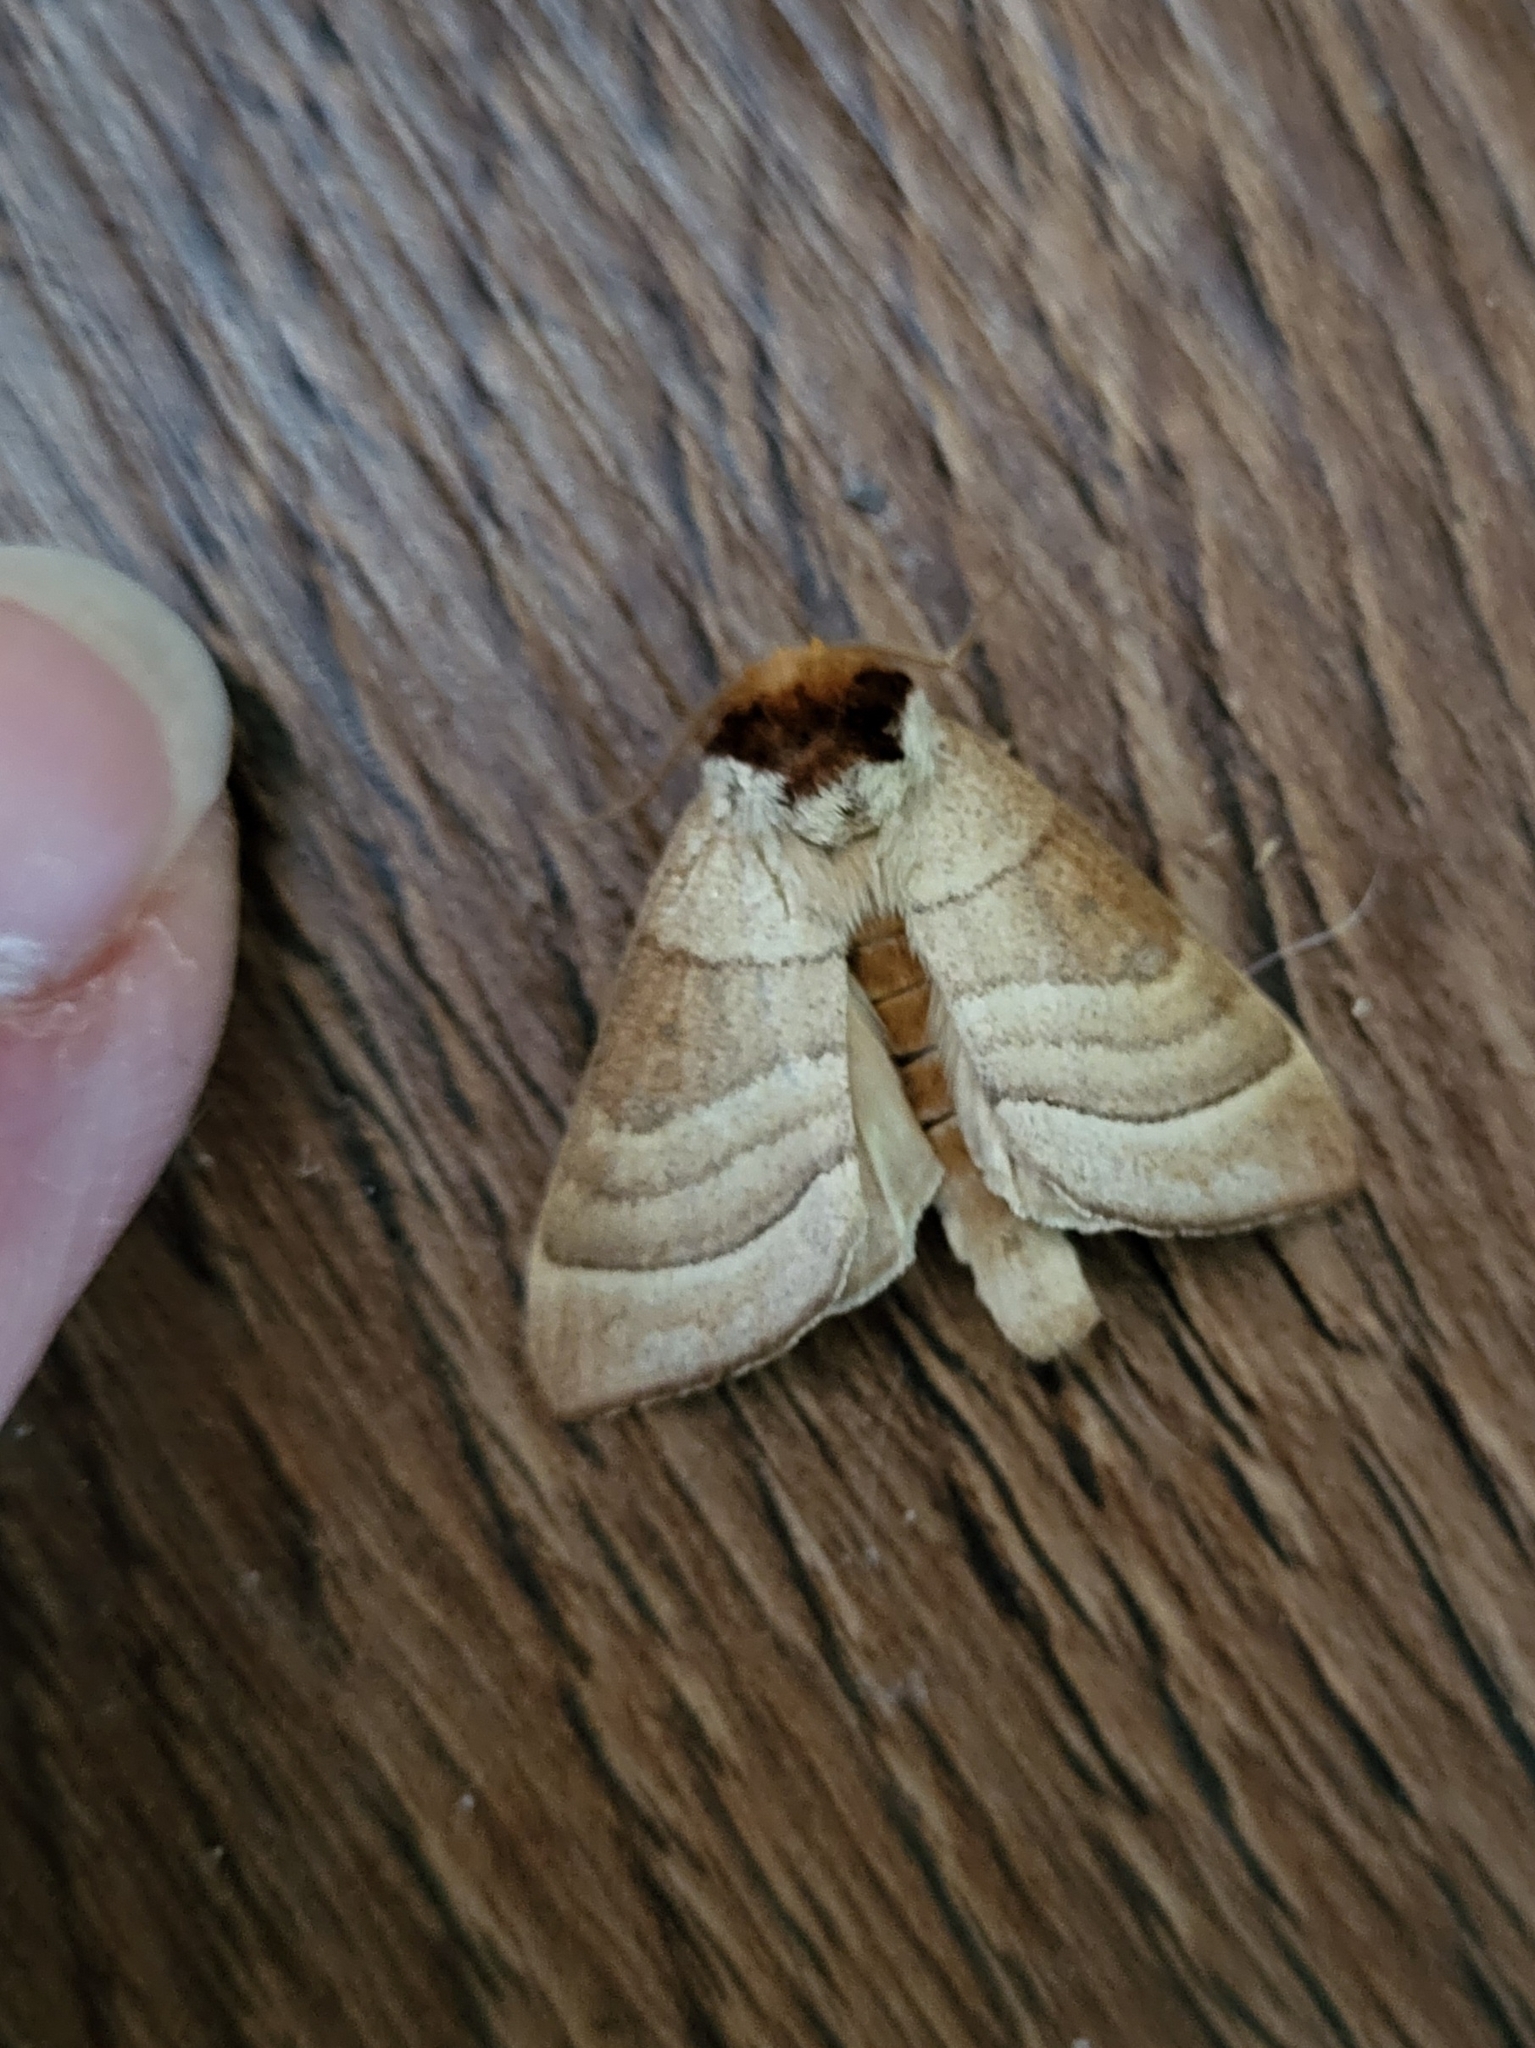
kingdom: Animalia
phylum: Arthropoda
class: Insecta
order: Lepidoptera
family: Notodontidae
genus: Datana
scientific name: Datana integerrima
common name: Walnut caterpillar
